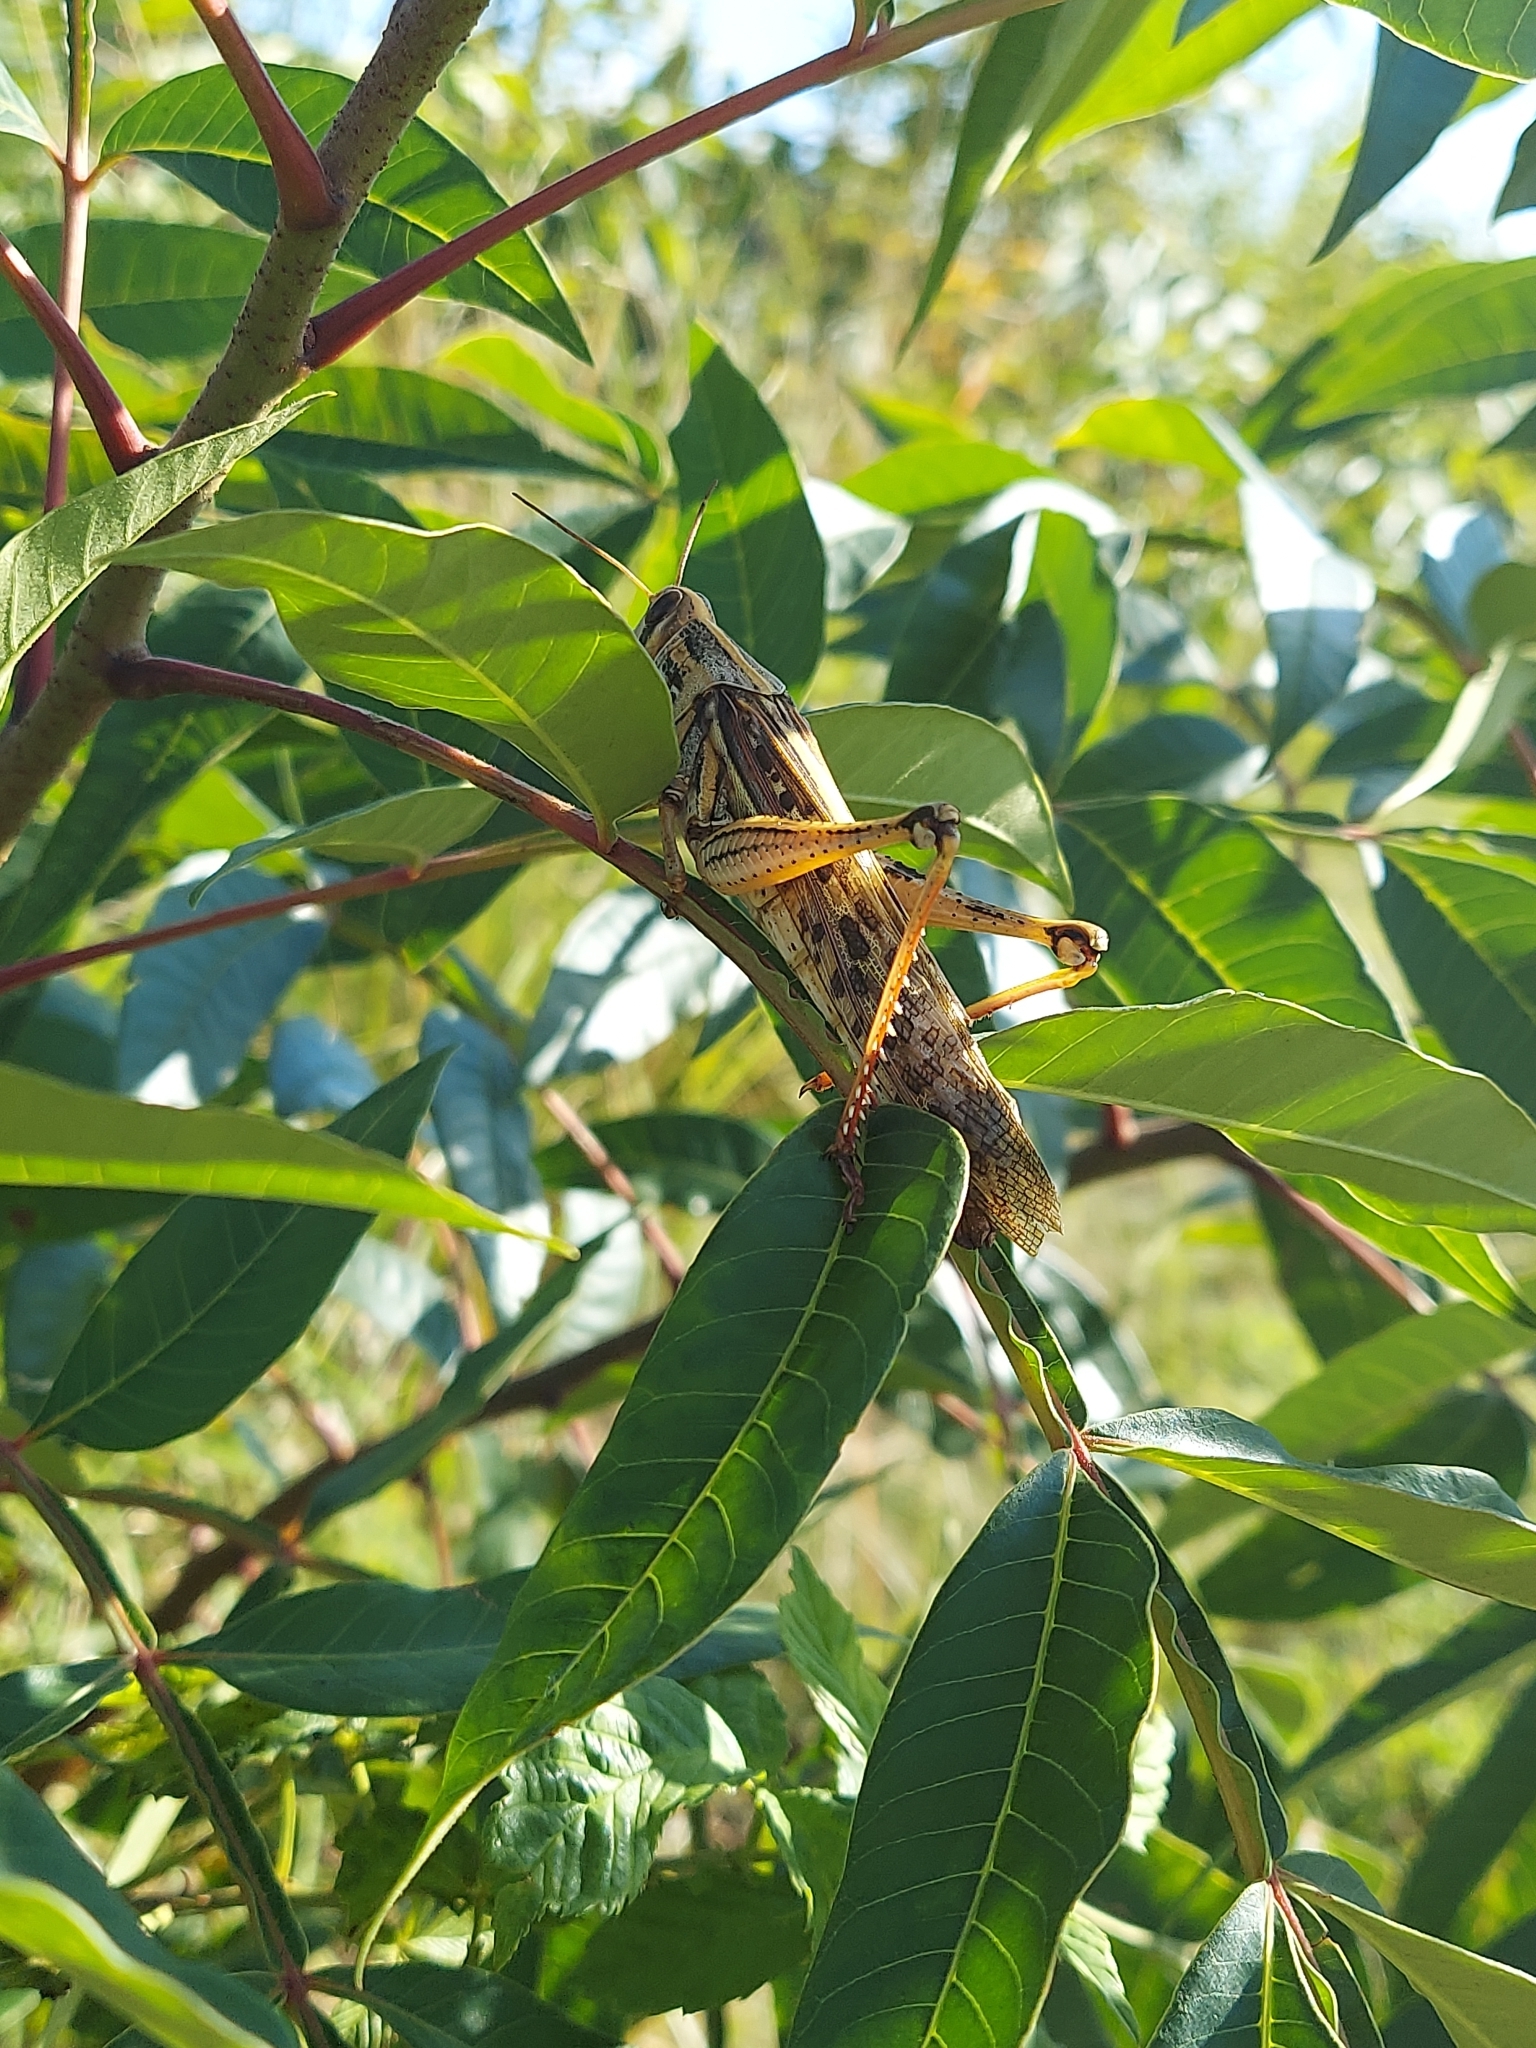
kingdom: Animalia
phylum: Arthropoda
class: Insecta
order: Orthoptera
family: Acrididae
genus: Schistocerca
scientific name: Schistocerca americana
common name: American bird locust
